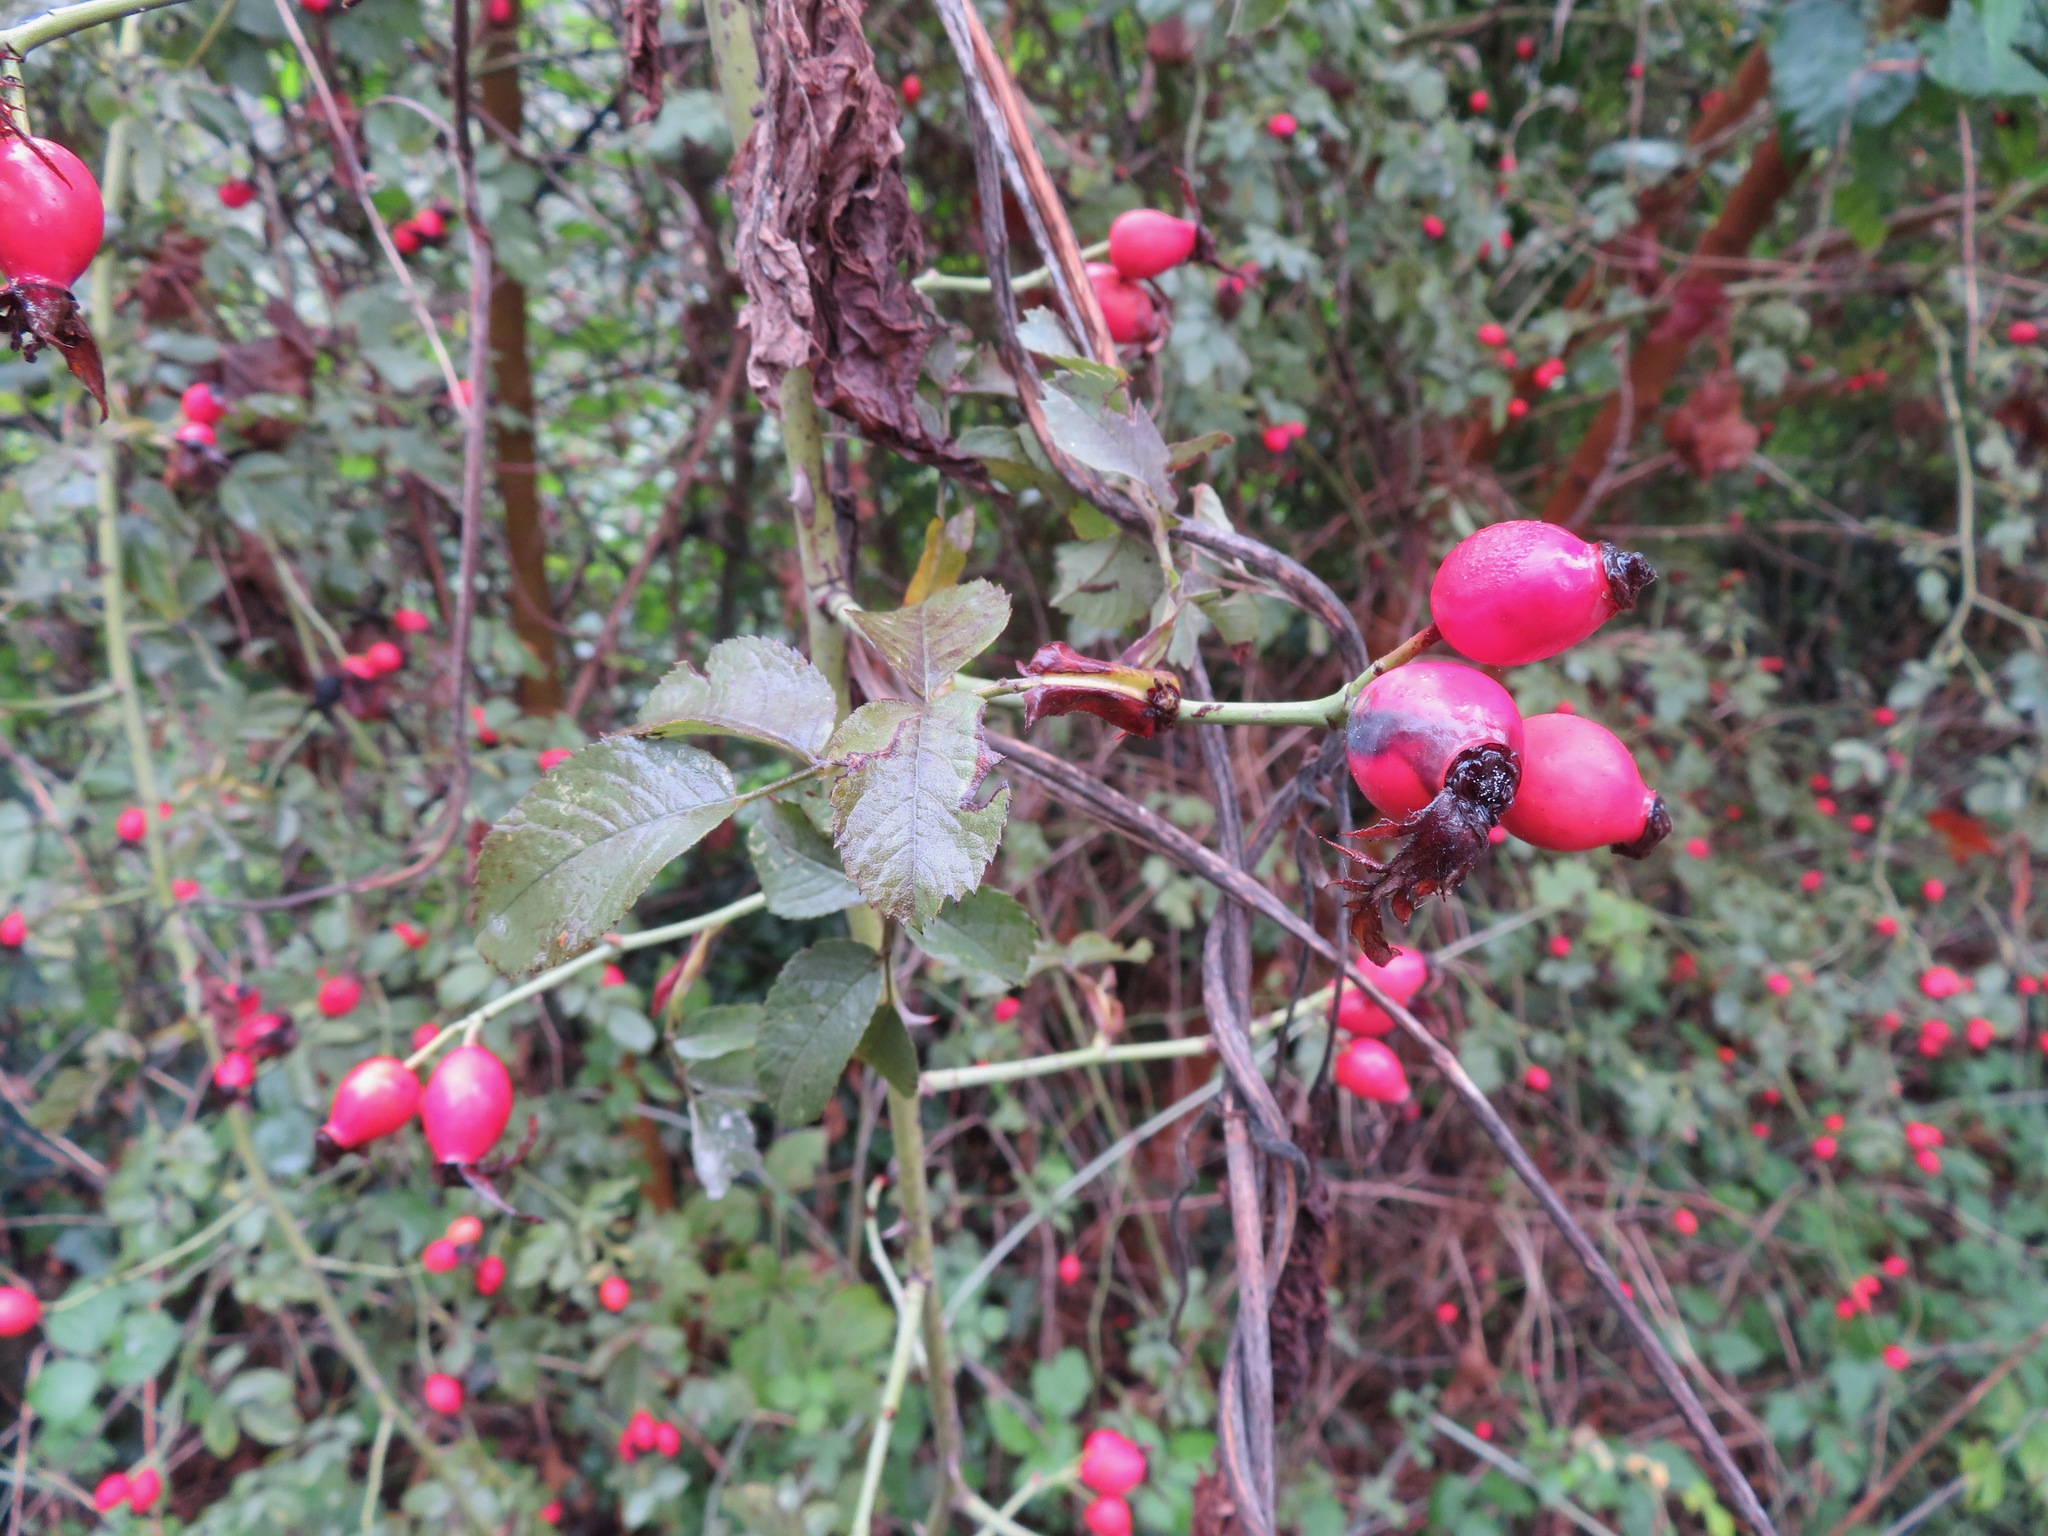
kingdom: Plantae
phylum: Tracheophyta
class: Magnoliopsida
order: Rosales
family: Rosaceae
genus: Crataegus
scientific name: Crataegus monogyna
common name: Hawthorn
